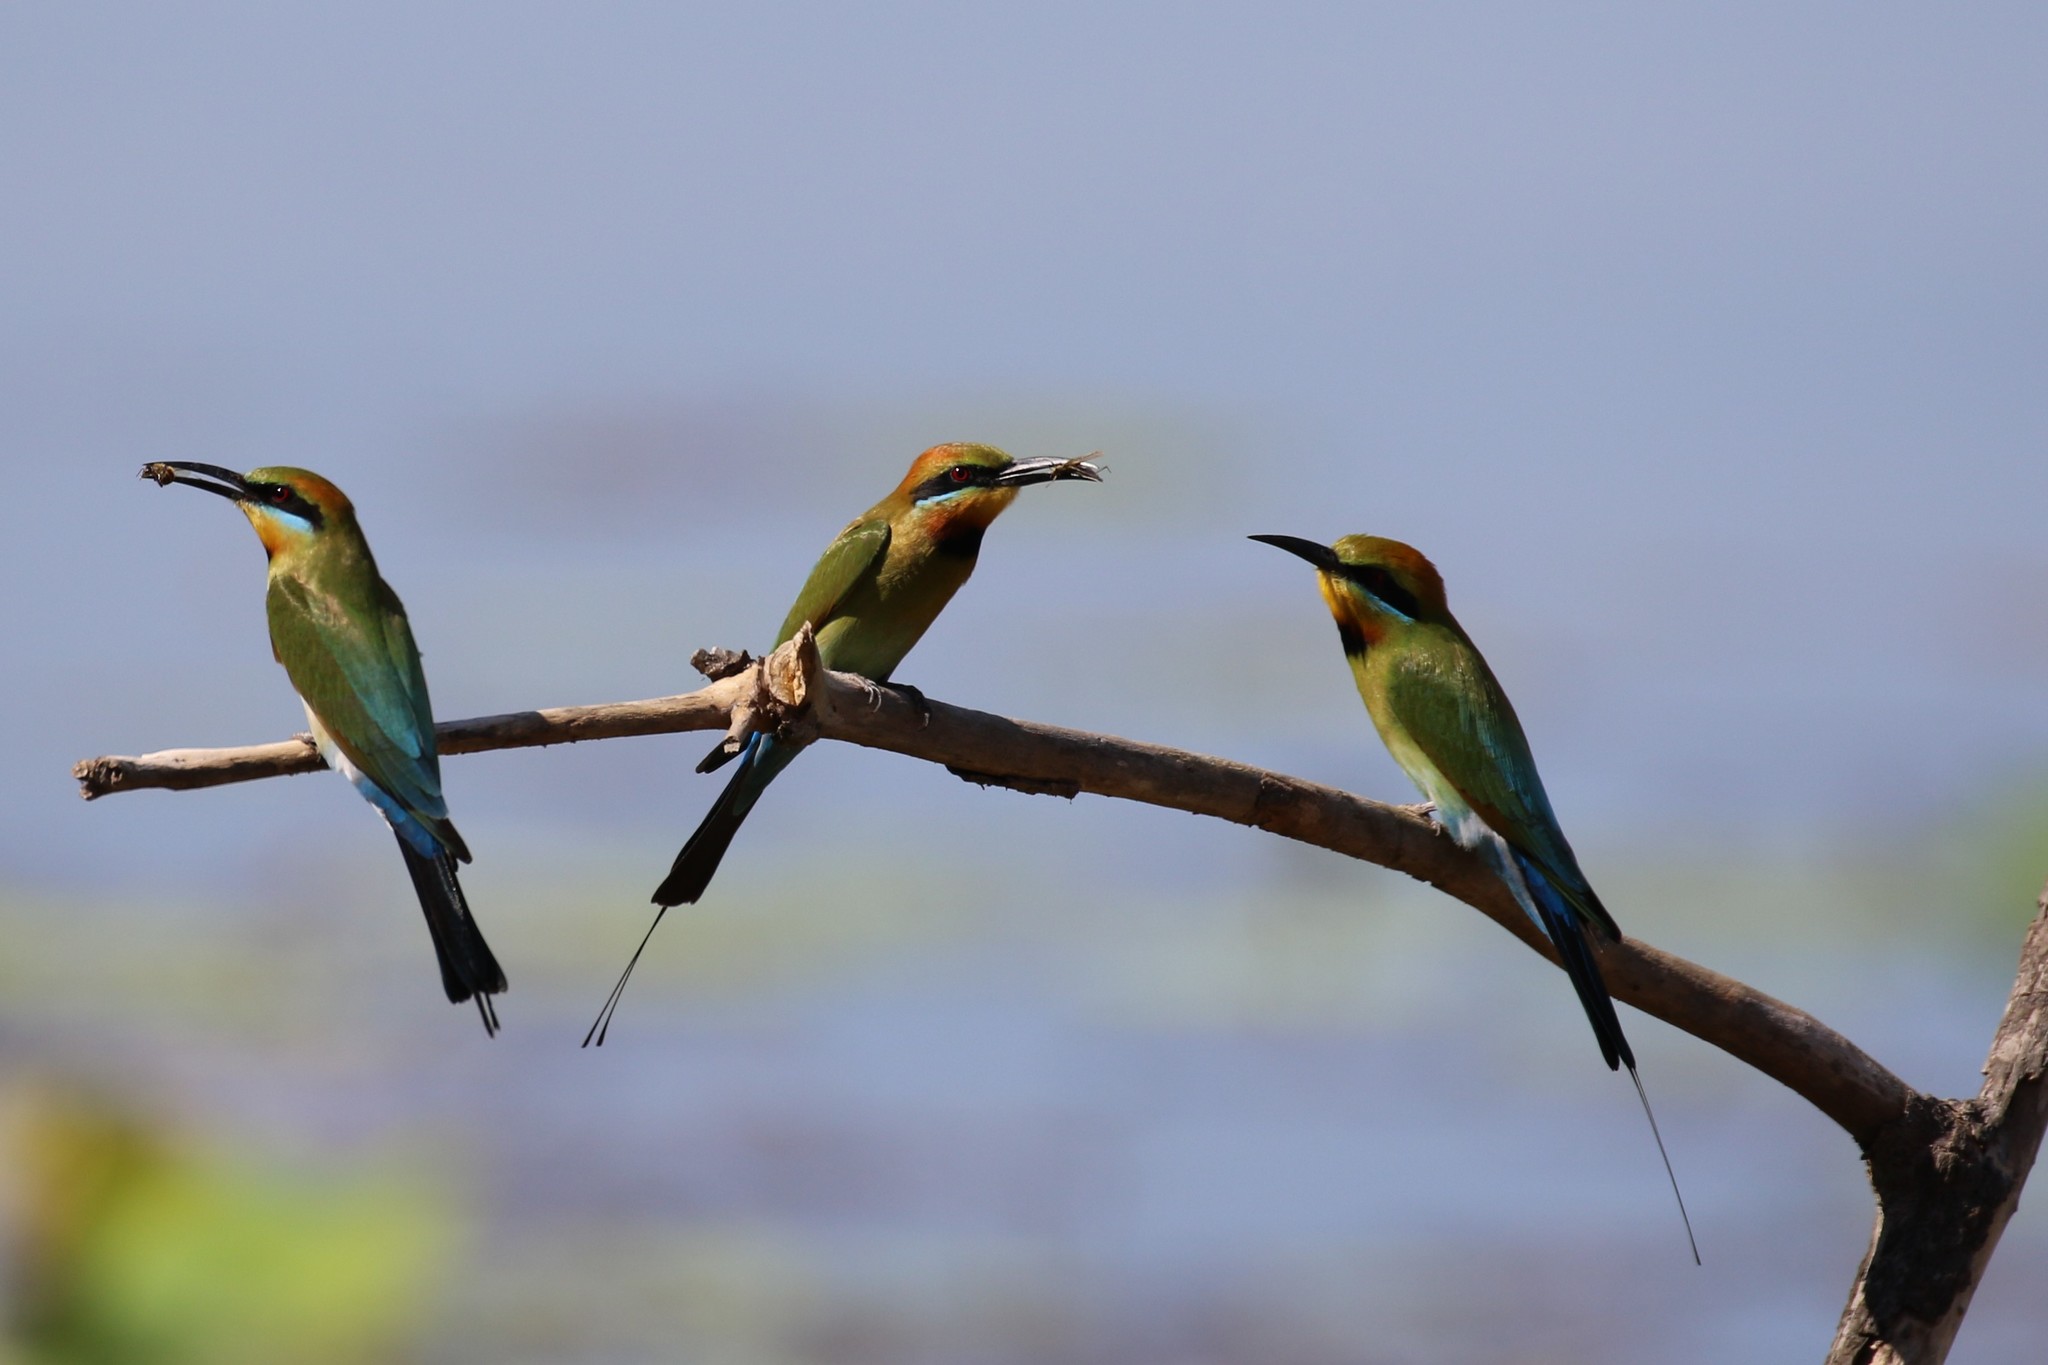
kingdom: Animalia
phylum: Chordata
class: Aves
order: Coraciiformes
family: Meropidae
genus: Merops
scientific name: Merops ornatus
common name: Rainbow bee-eater
